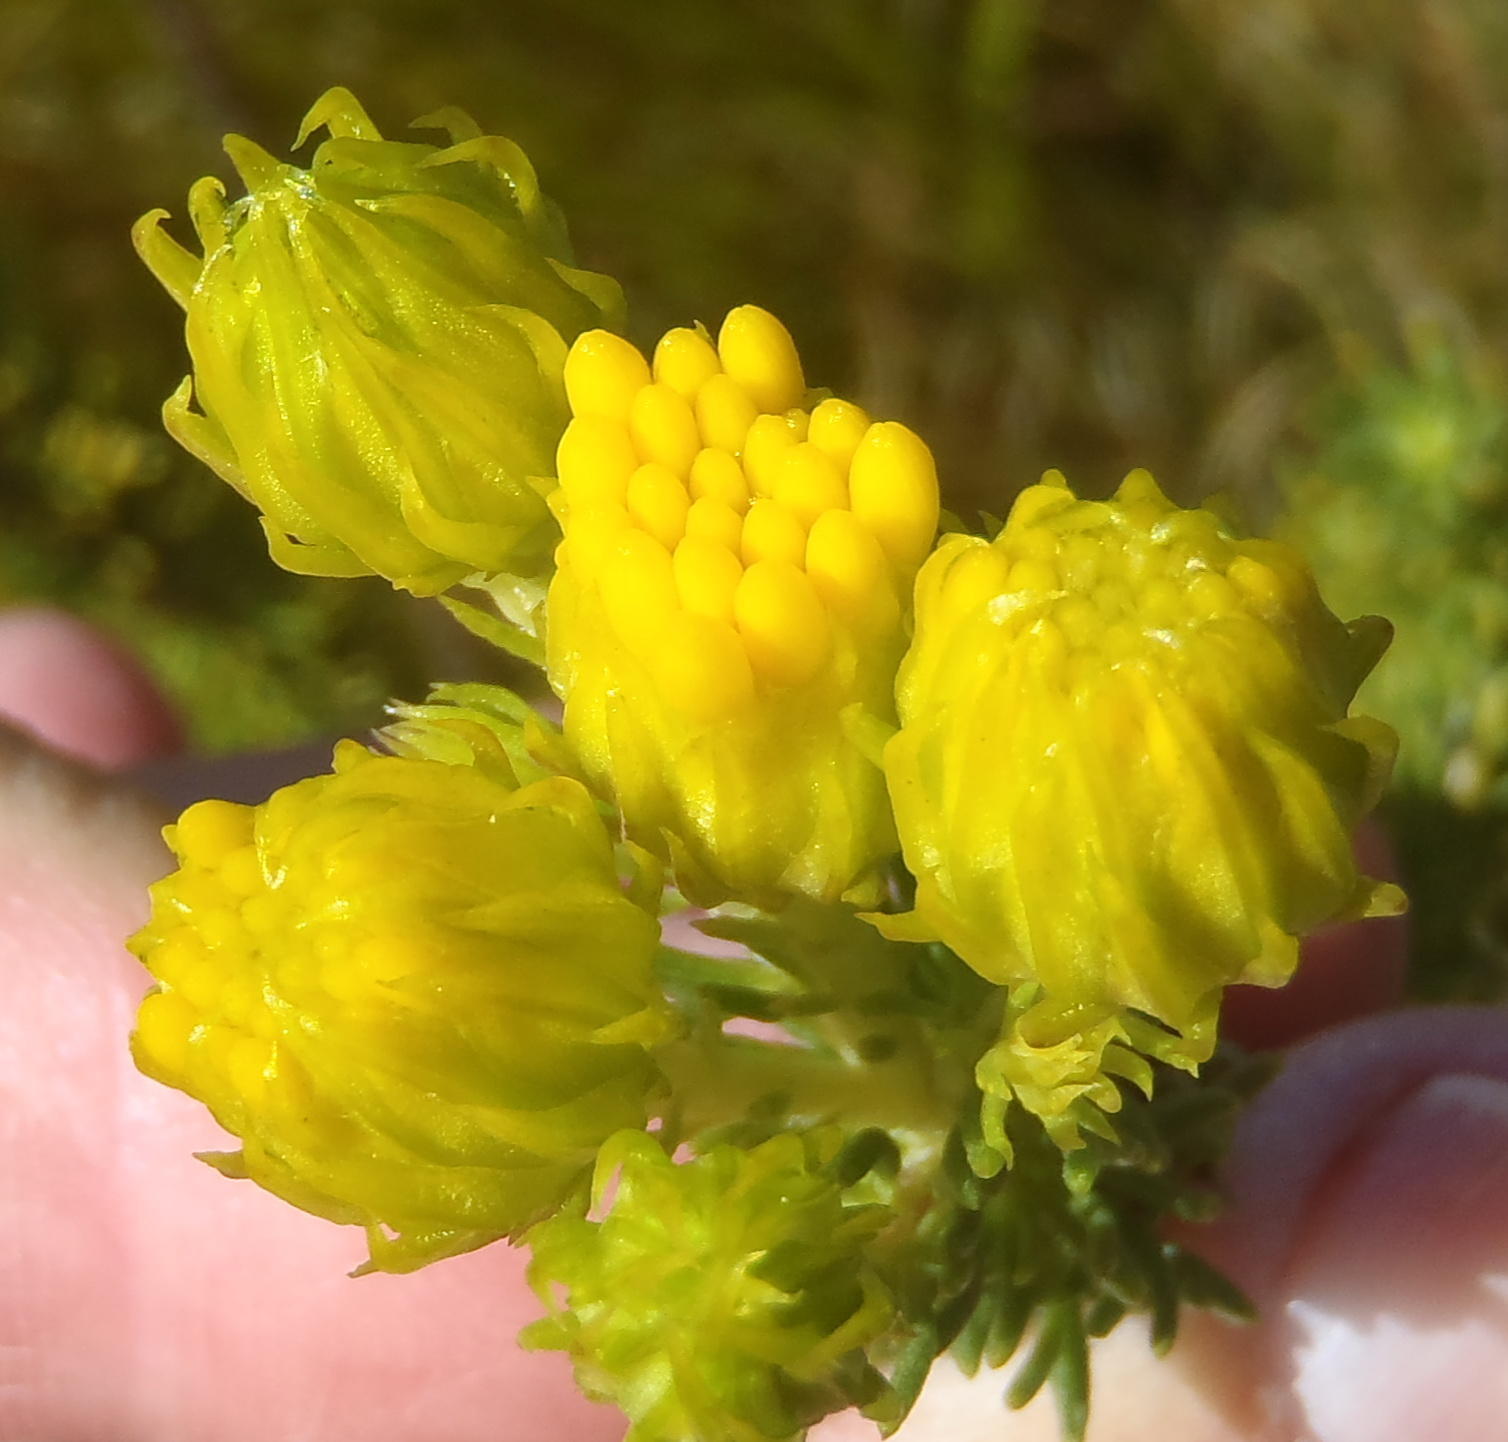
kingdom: Plantae
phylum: Tracheophyta
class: Magnoliopsida
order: Asterales
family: Asteraceae
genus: Pteronia
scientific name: Pteronia camphorata
